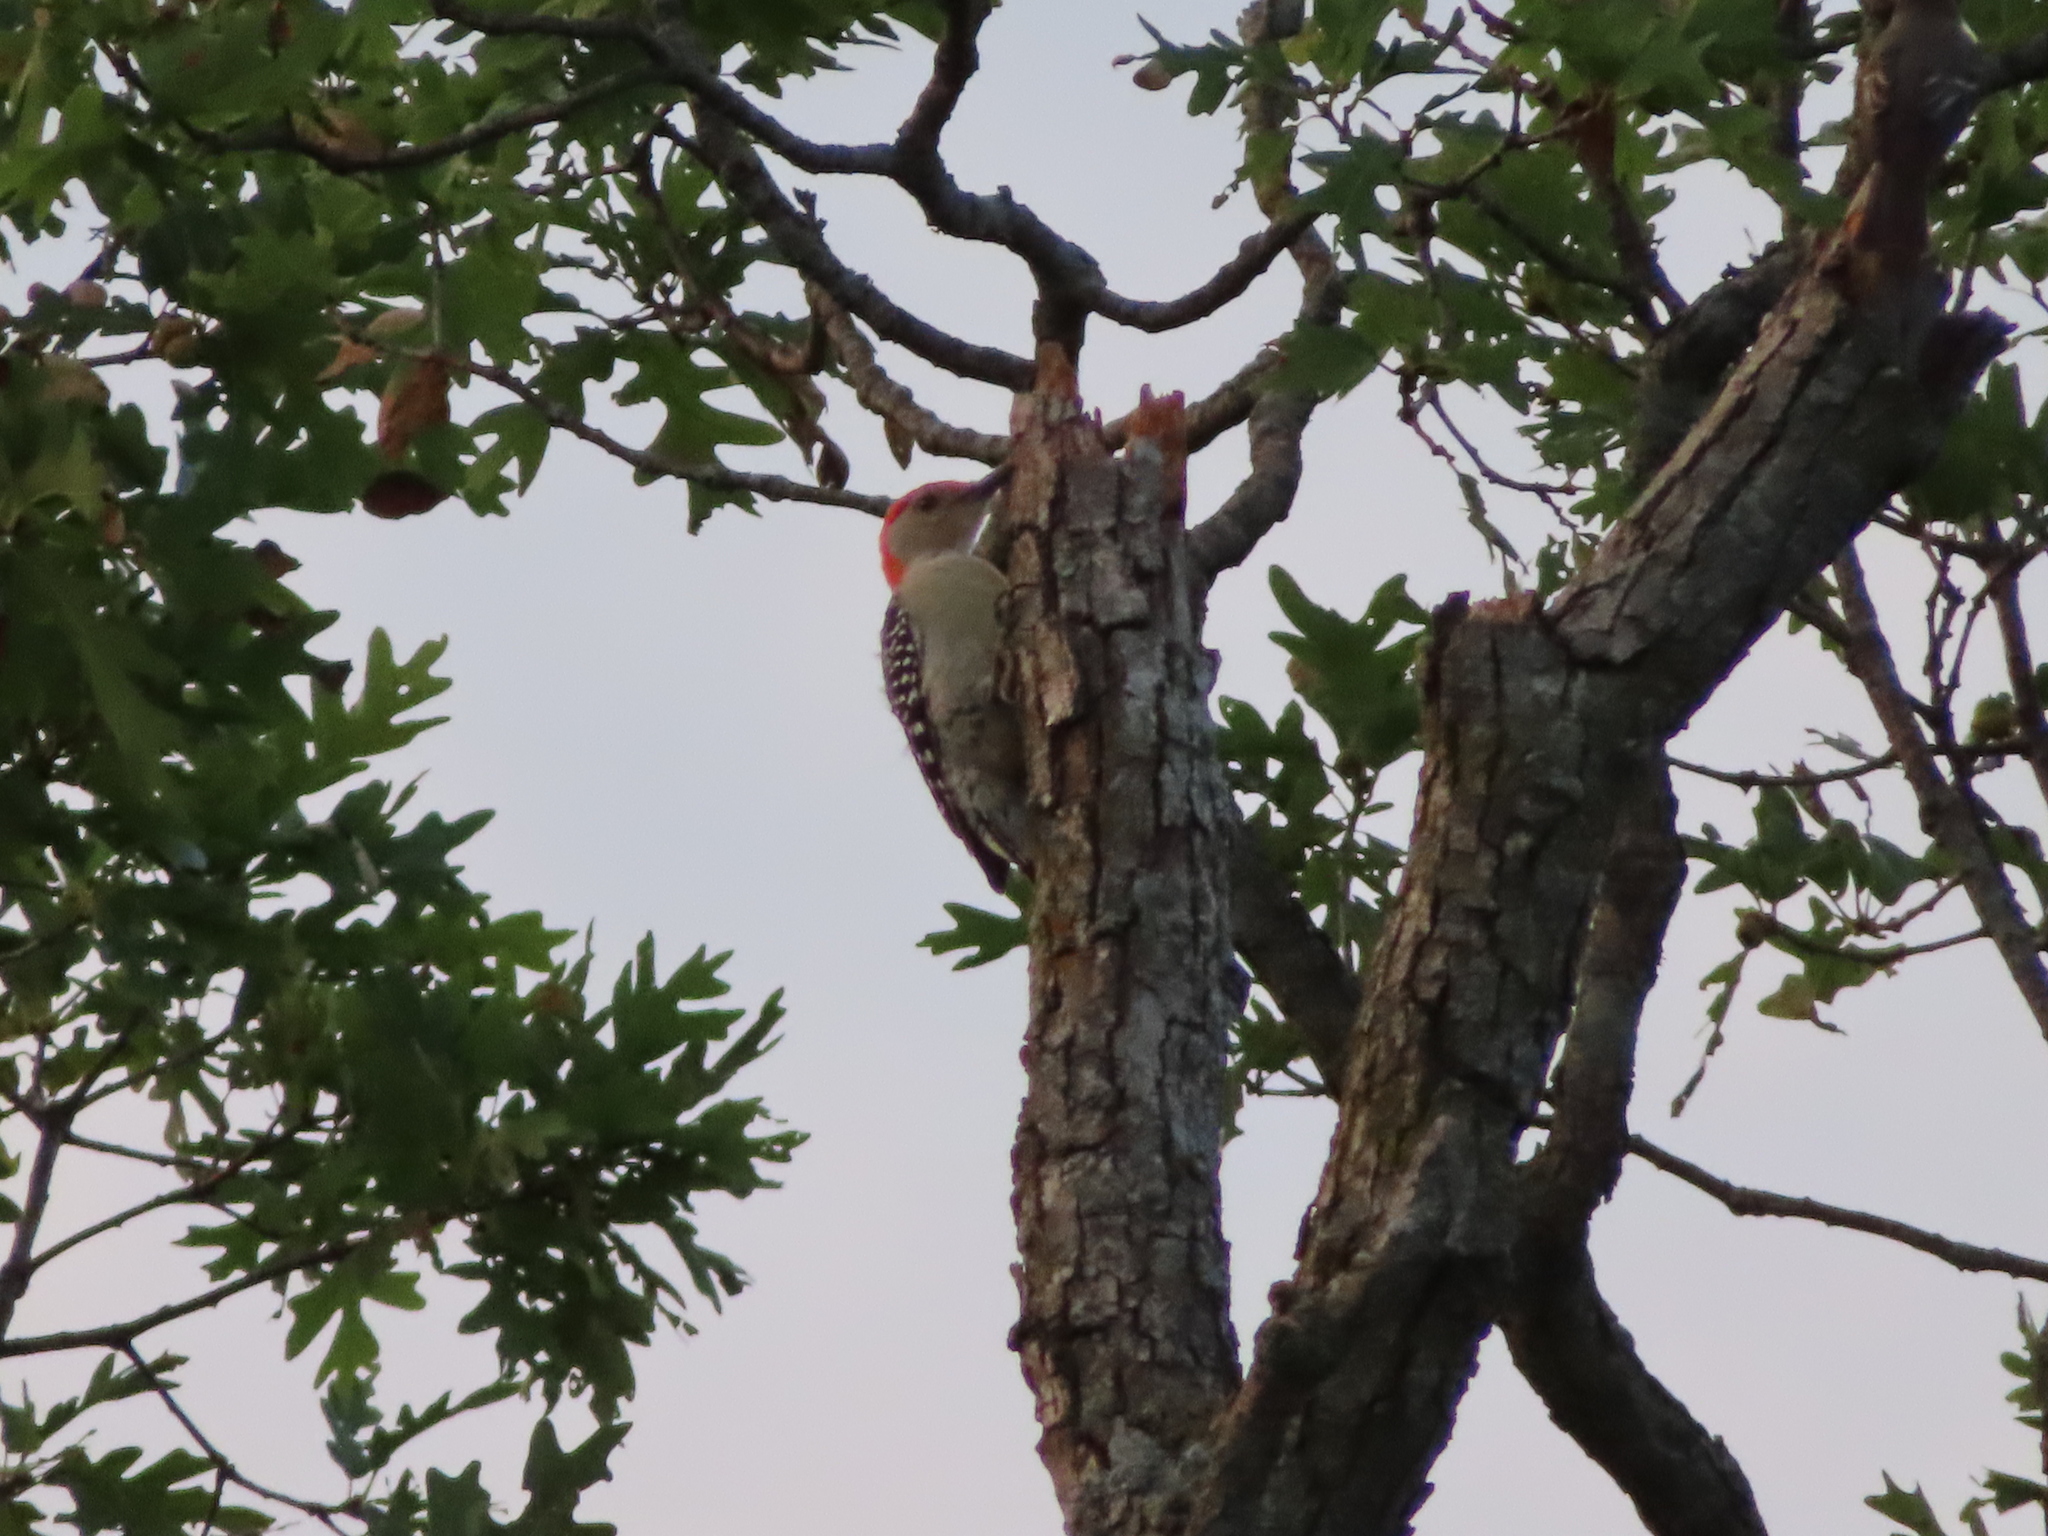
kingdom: Animalia
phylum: Chordata
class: Aves
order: Piciformes
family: Picidae
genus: Melanerpes
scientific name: Melanerpes carolinus
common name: Red-bellied woodpecker
